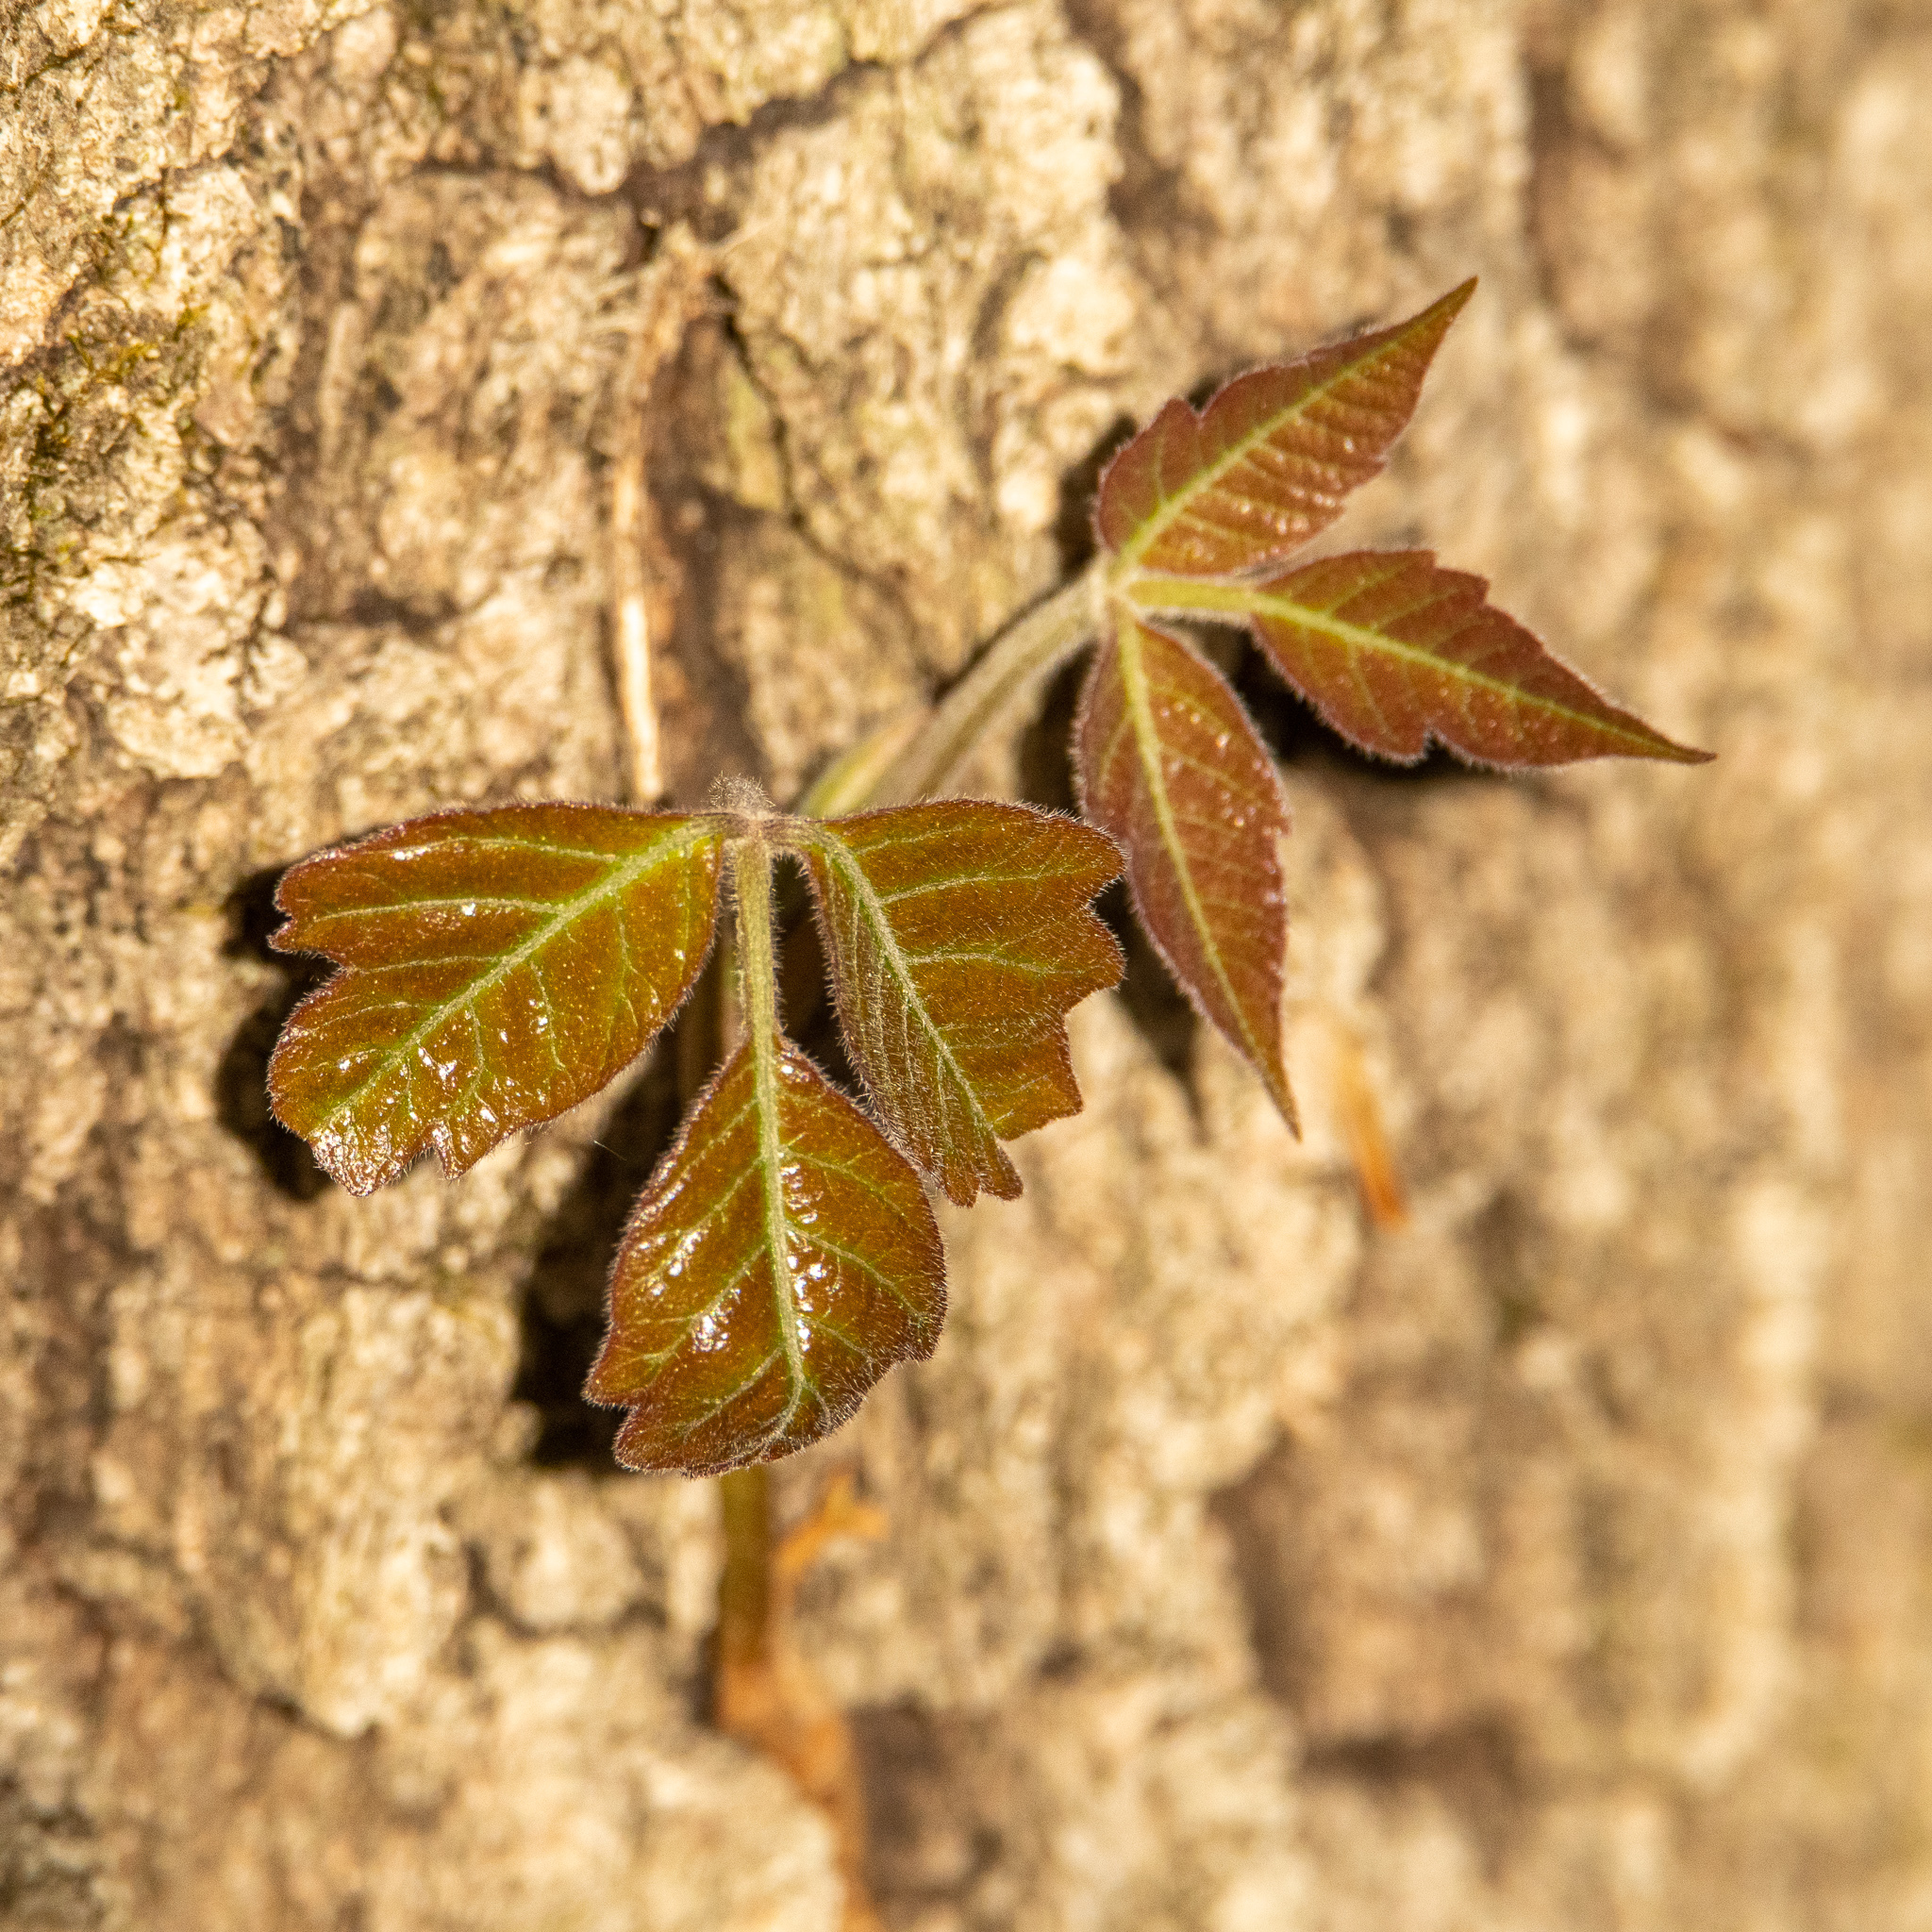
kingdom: Plantae
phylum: Tracheophyta
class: Magnoliopsida
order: Sapindales
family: Anacardiaceae
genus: Toxicodendron
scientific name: Toxicodendron radicans
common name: Poison ivy
